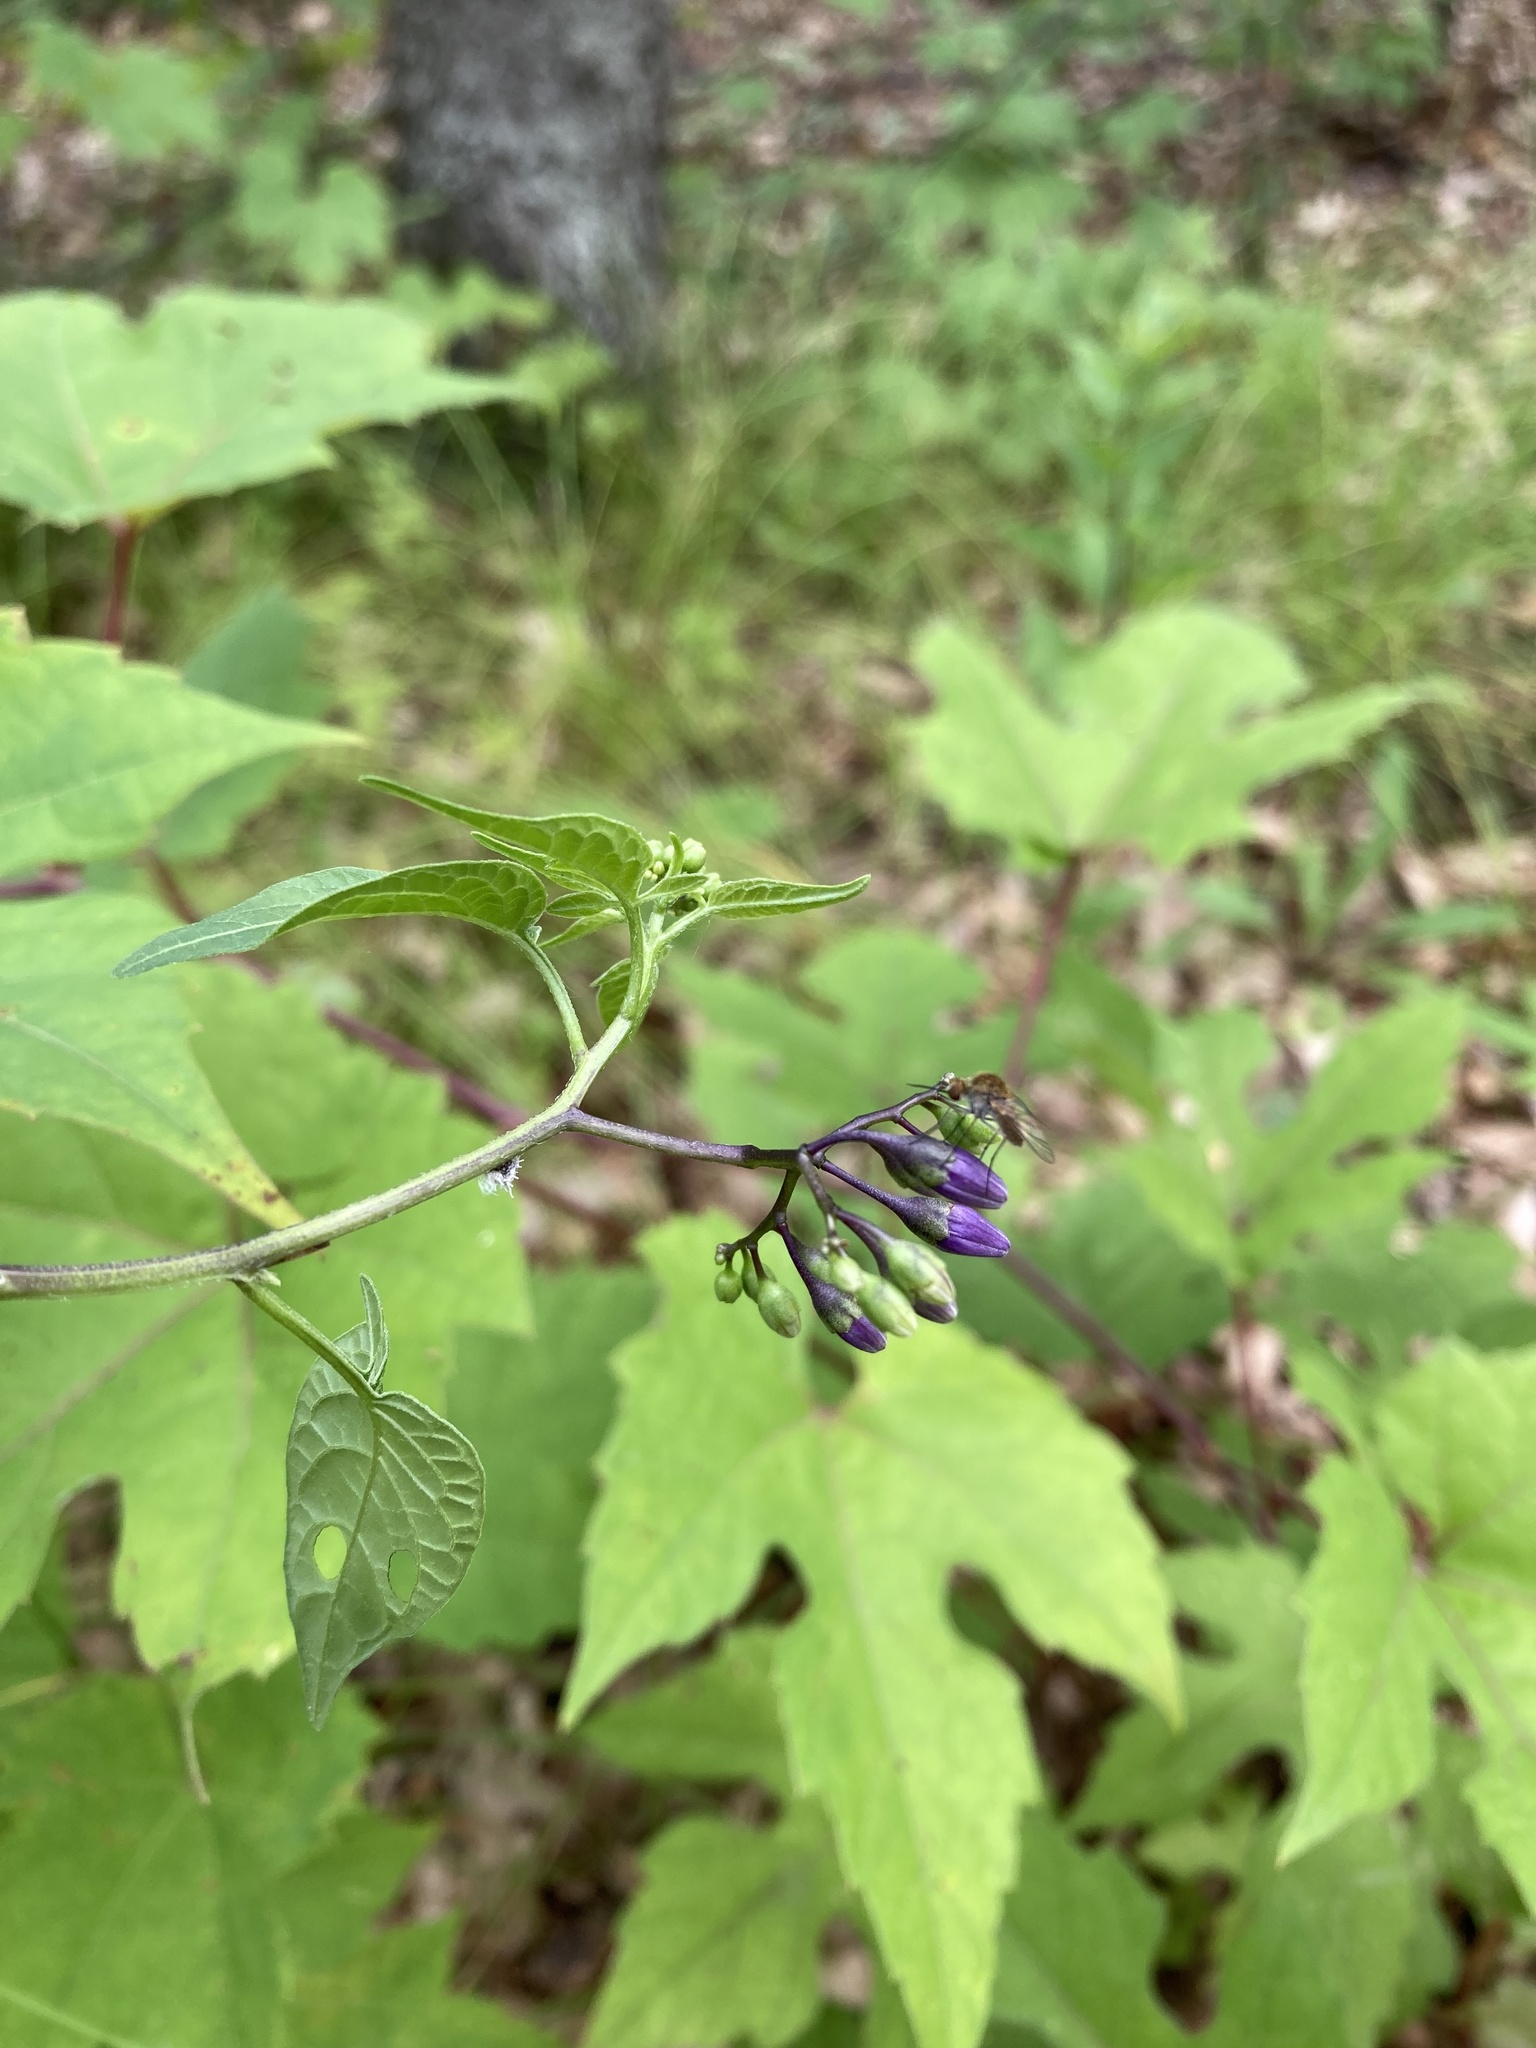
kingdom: Plantae
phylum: Tracheophyta
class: Magnoliopsida
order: Solanales
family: Solanaceae
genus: Solanum
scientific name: Solanum dulcamara
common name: Climbing nightshade
